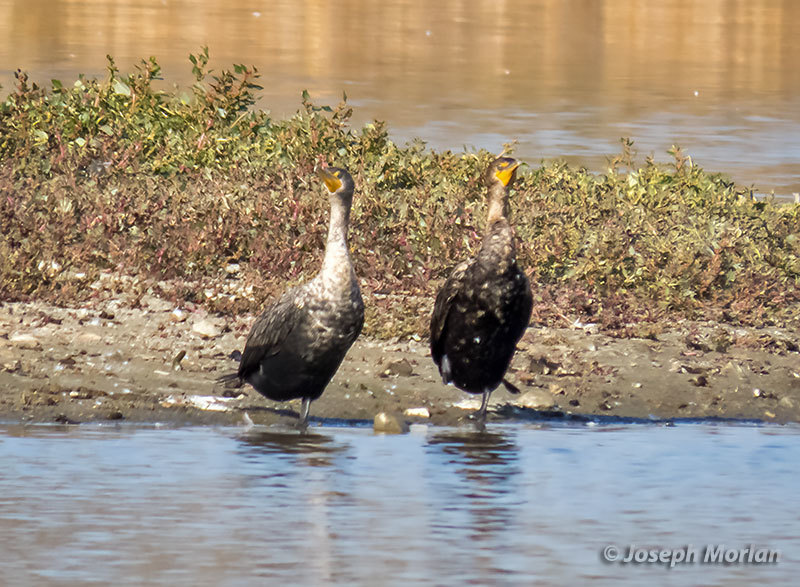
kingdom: Animalia
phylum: Chordata
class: Aves
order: Suliformes
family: Phalacrocoracidae
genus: Phalacrocorax
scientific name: Phalacrocorax auritus
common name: Double-crested cormorant
